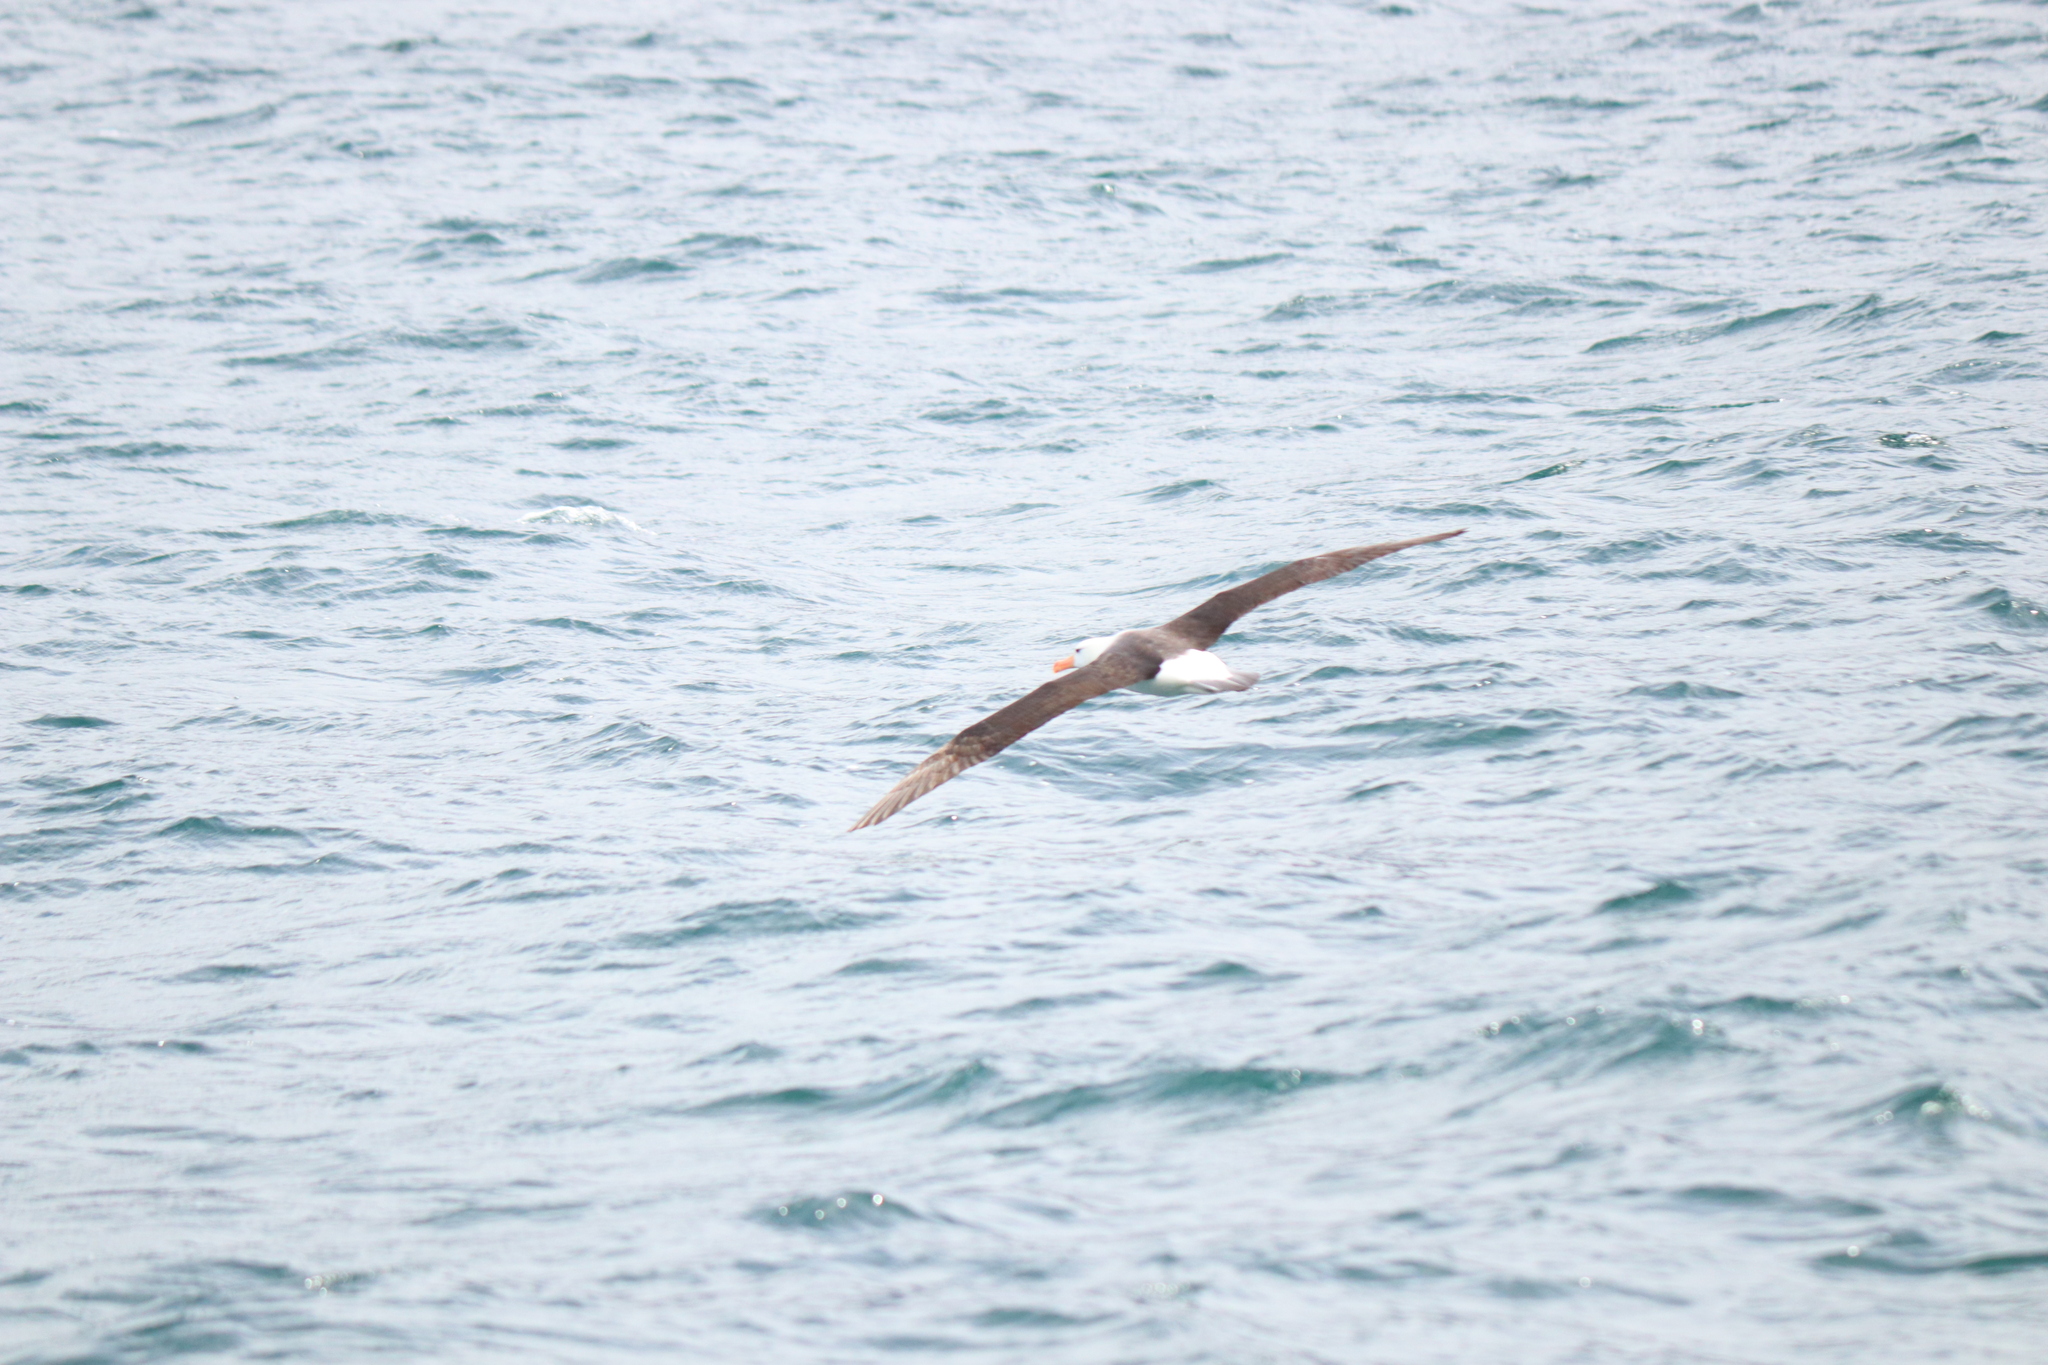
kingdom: Animalia
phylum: Chordata
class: Aves
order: Procellariiformes
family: Diomedeidae
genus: Thalassarche
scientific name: Thalassarche melanophris
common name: Black-browed albatross
